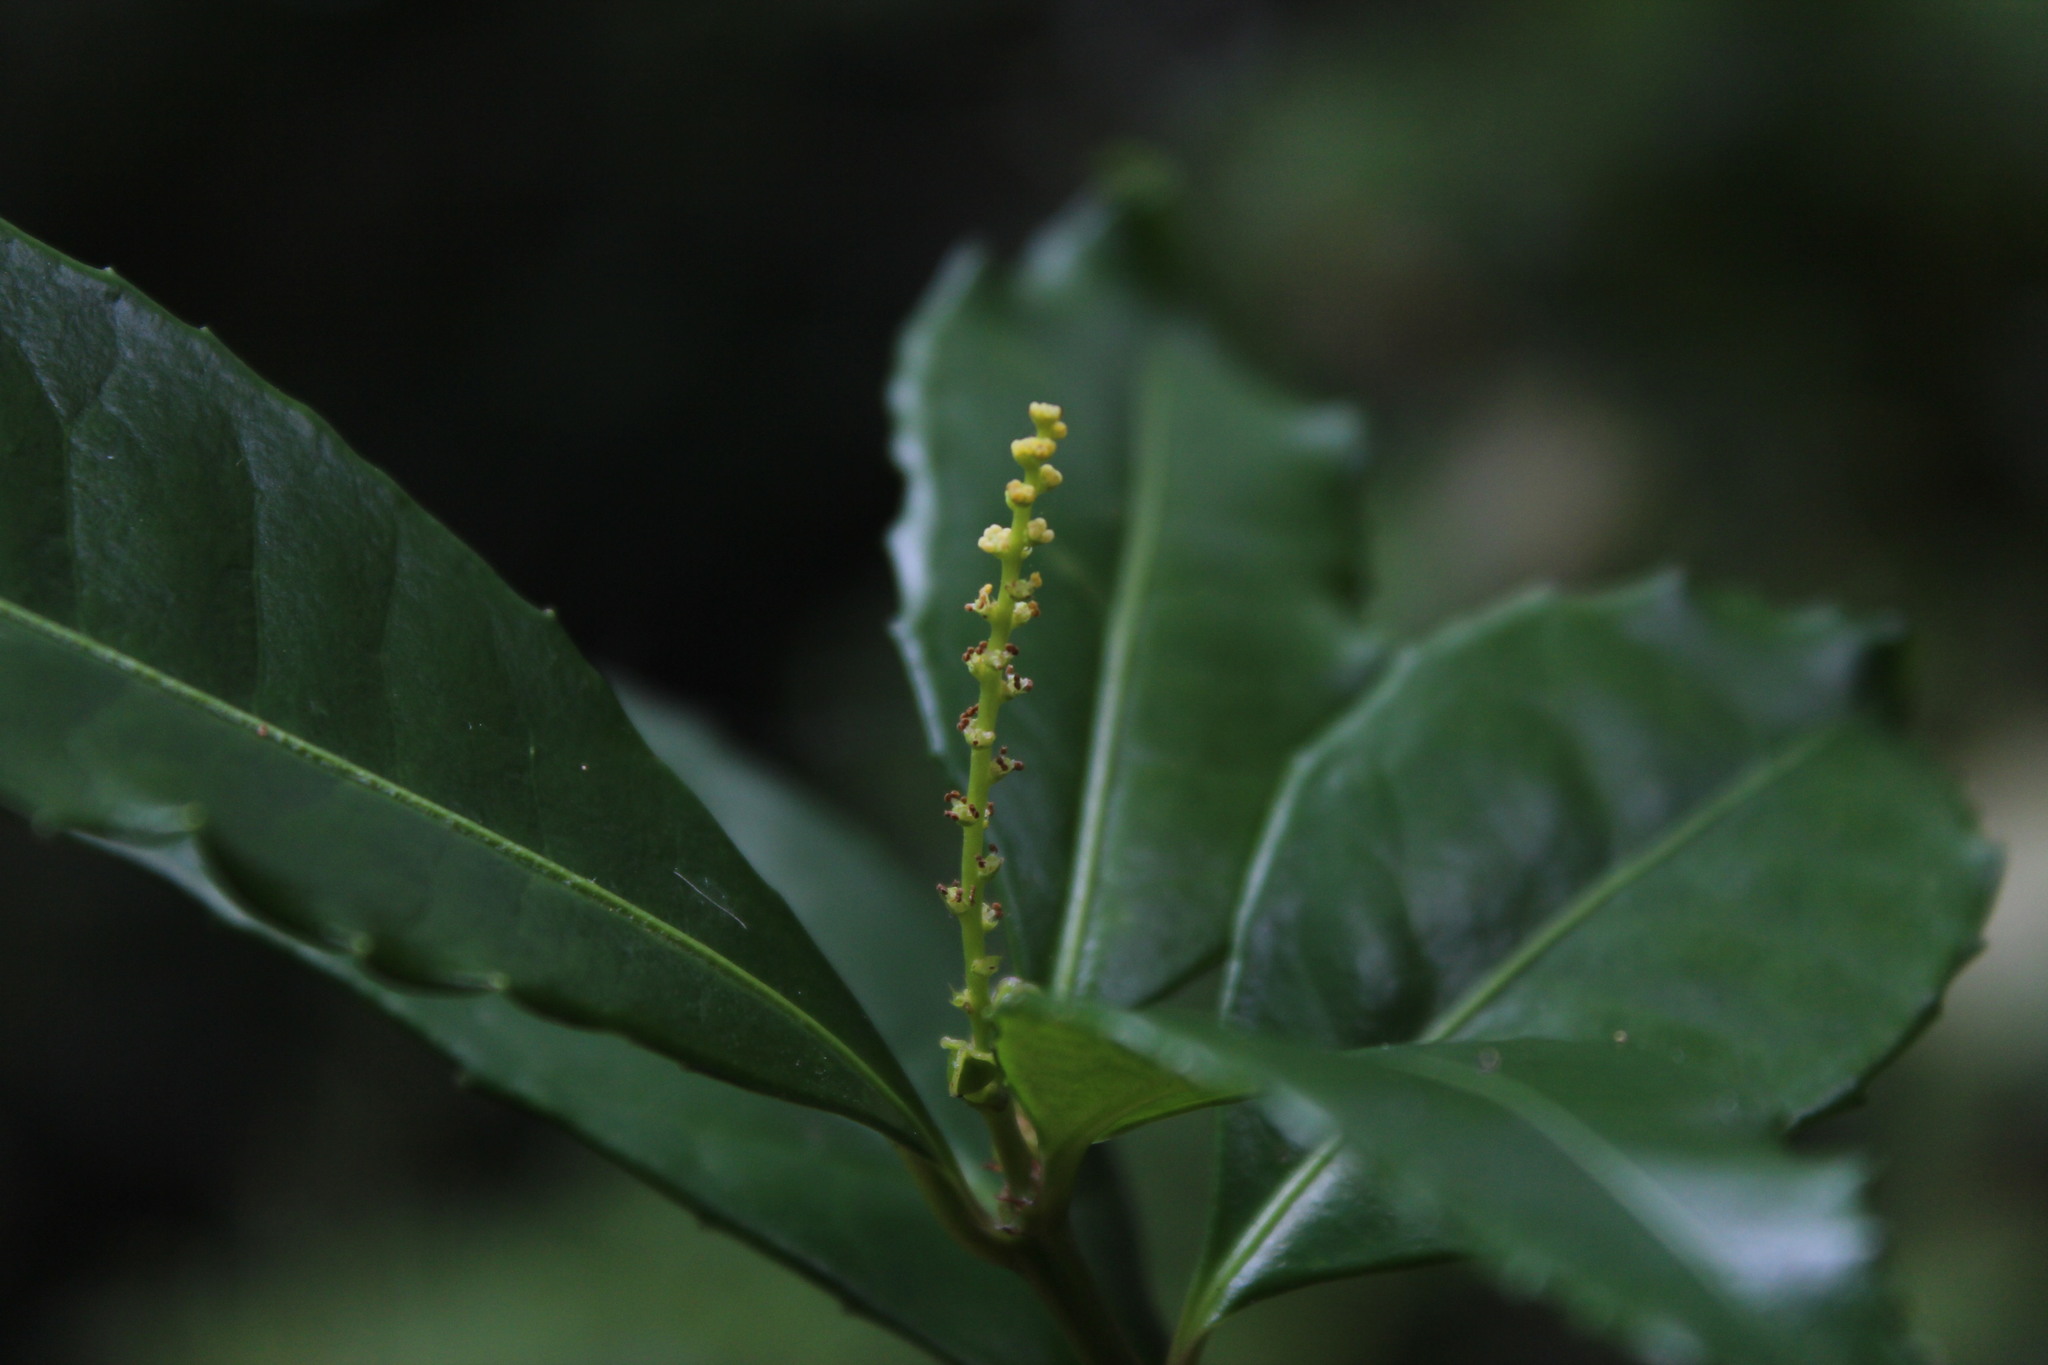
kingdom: Plantae
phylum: Tracheophyta
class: Magnoliopsida
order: Malpighiales
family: Euphorbiaceae
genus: Excoecaria
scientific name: Excoecaria simii
